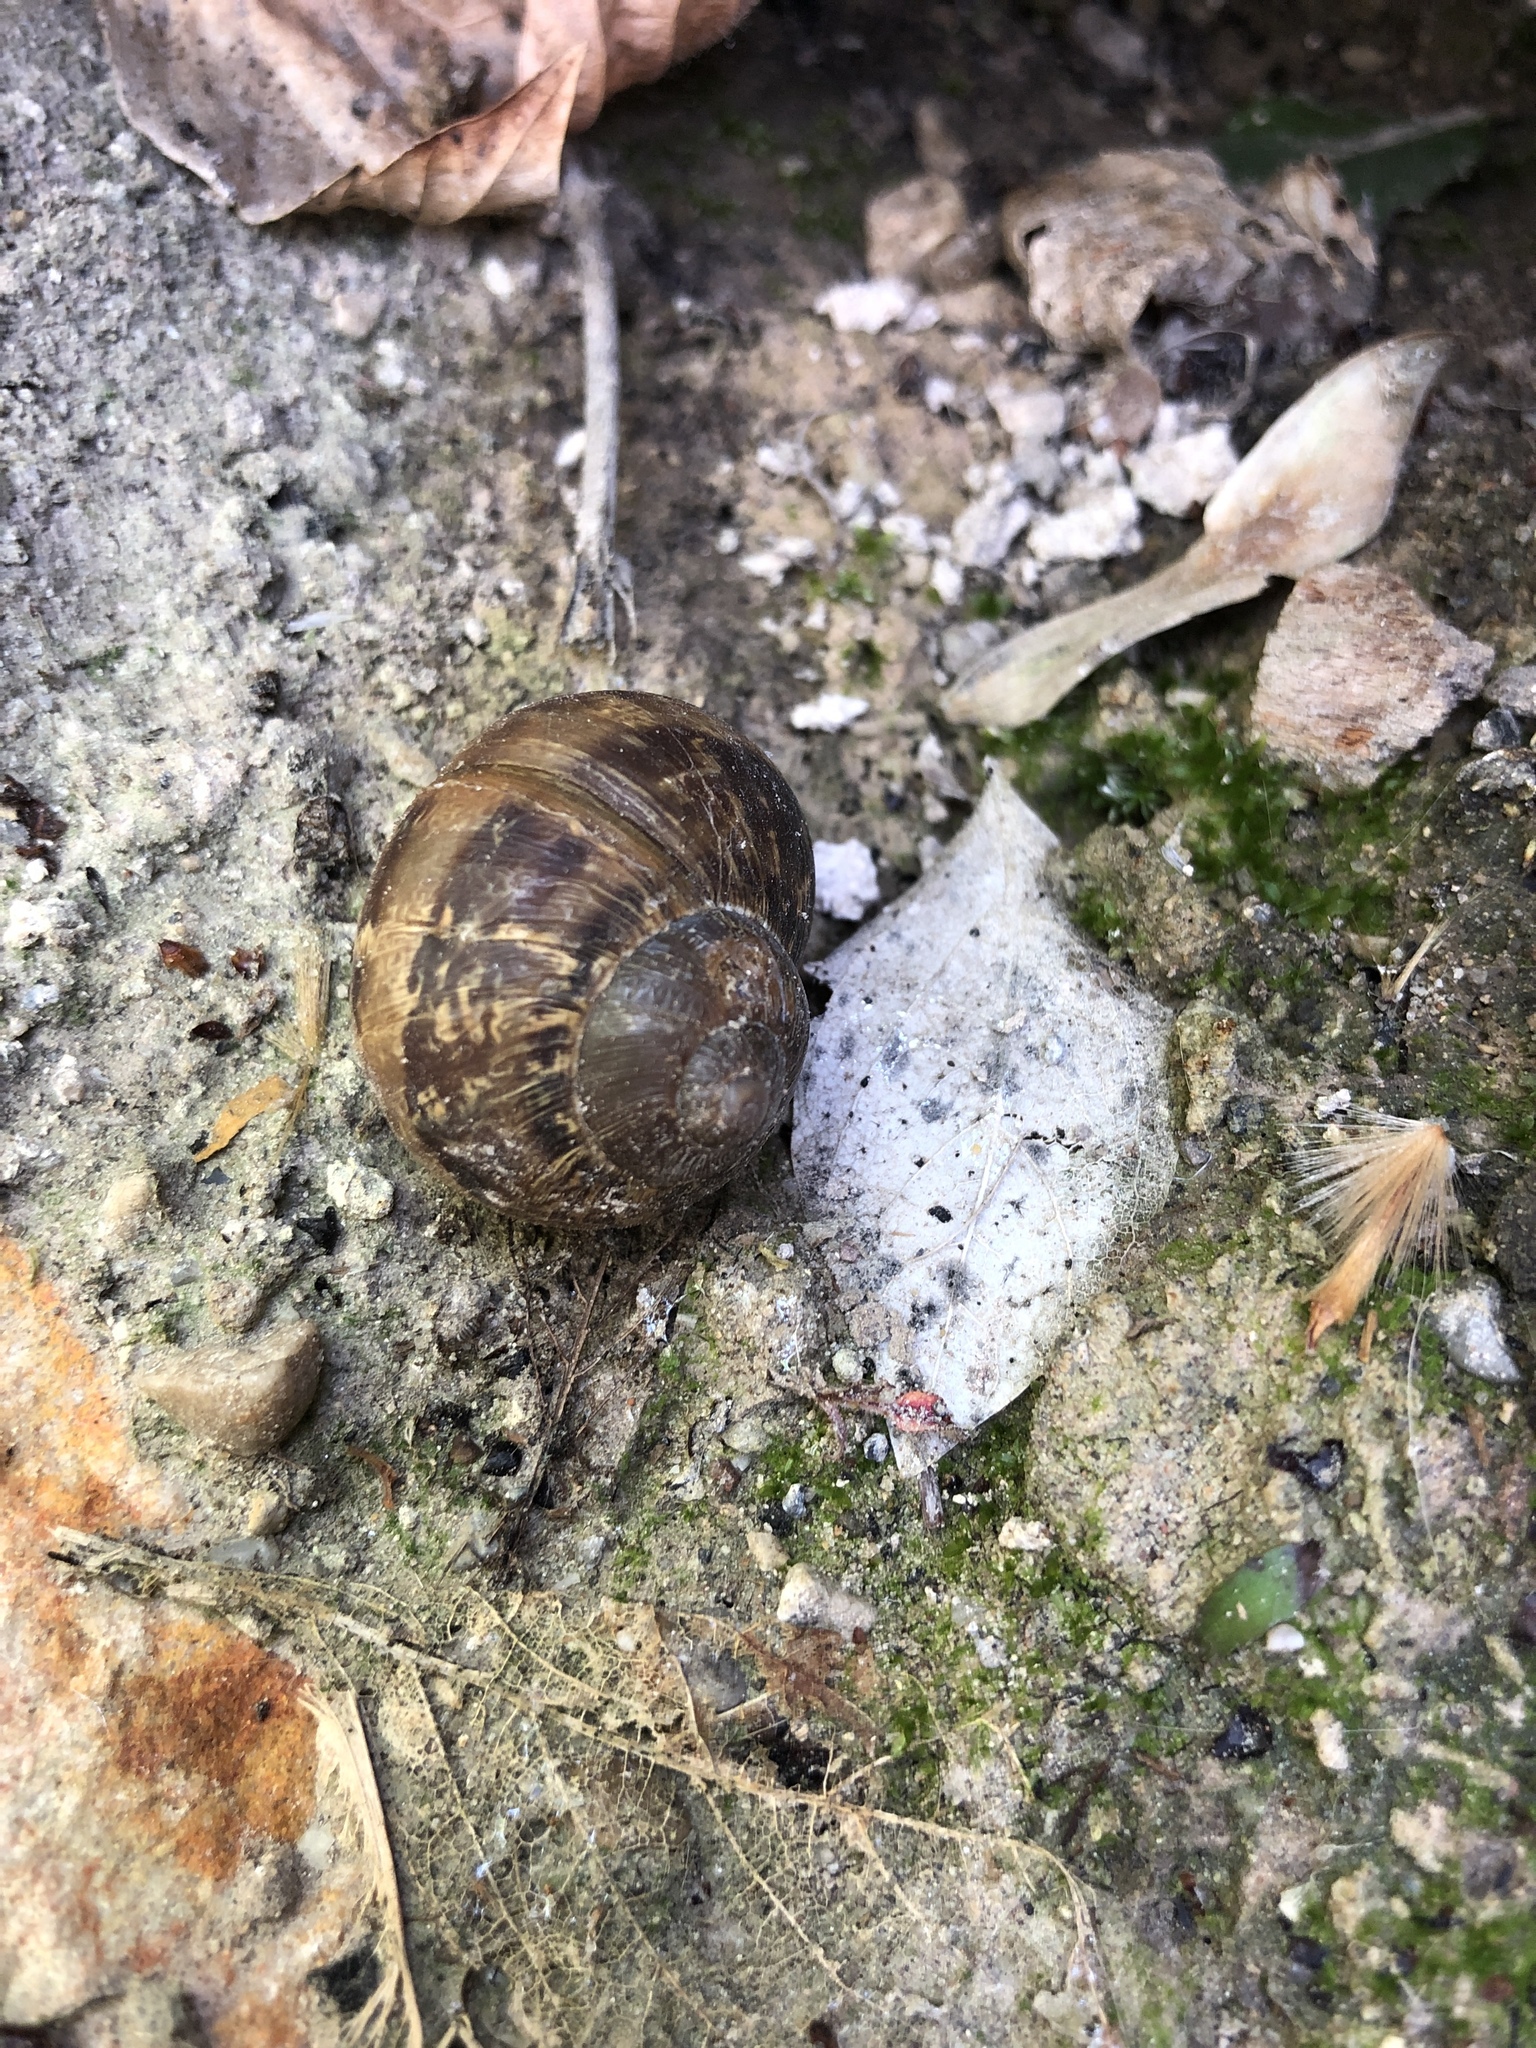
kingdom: Animalia
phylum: Mollusca
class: Gastropoda
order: Stylommatophora
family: Helicidae
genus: Cornu
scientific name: Cornu aspersum
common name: Brown garden snail
